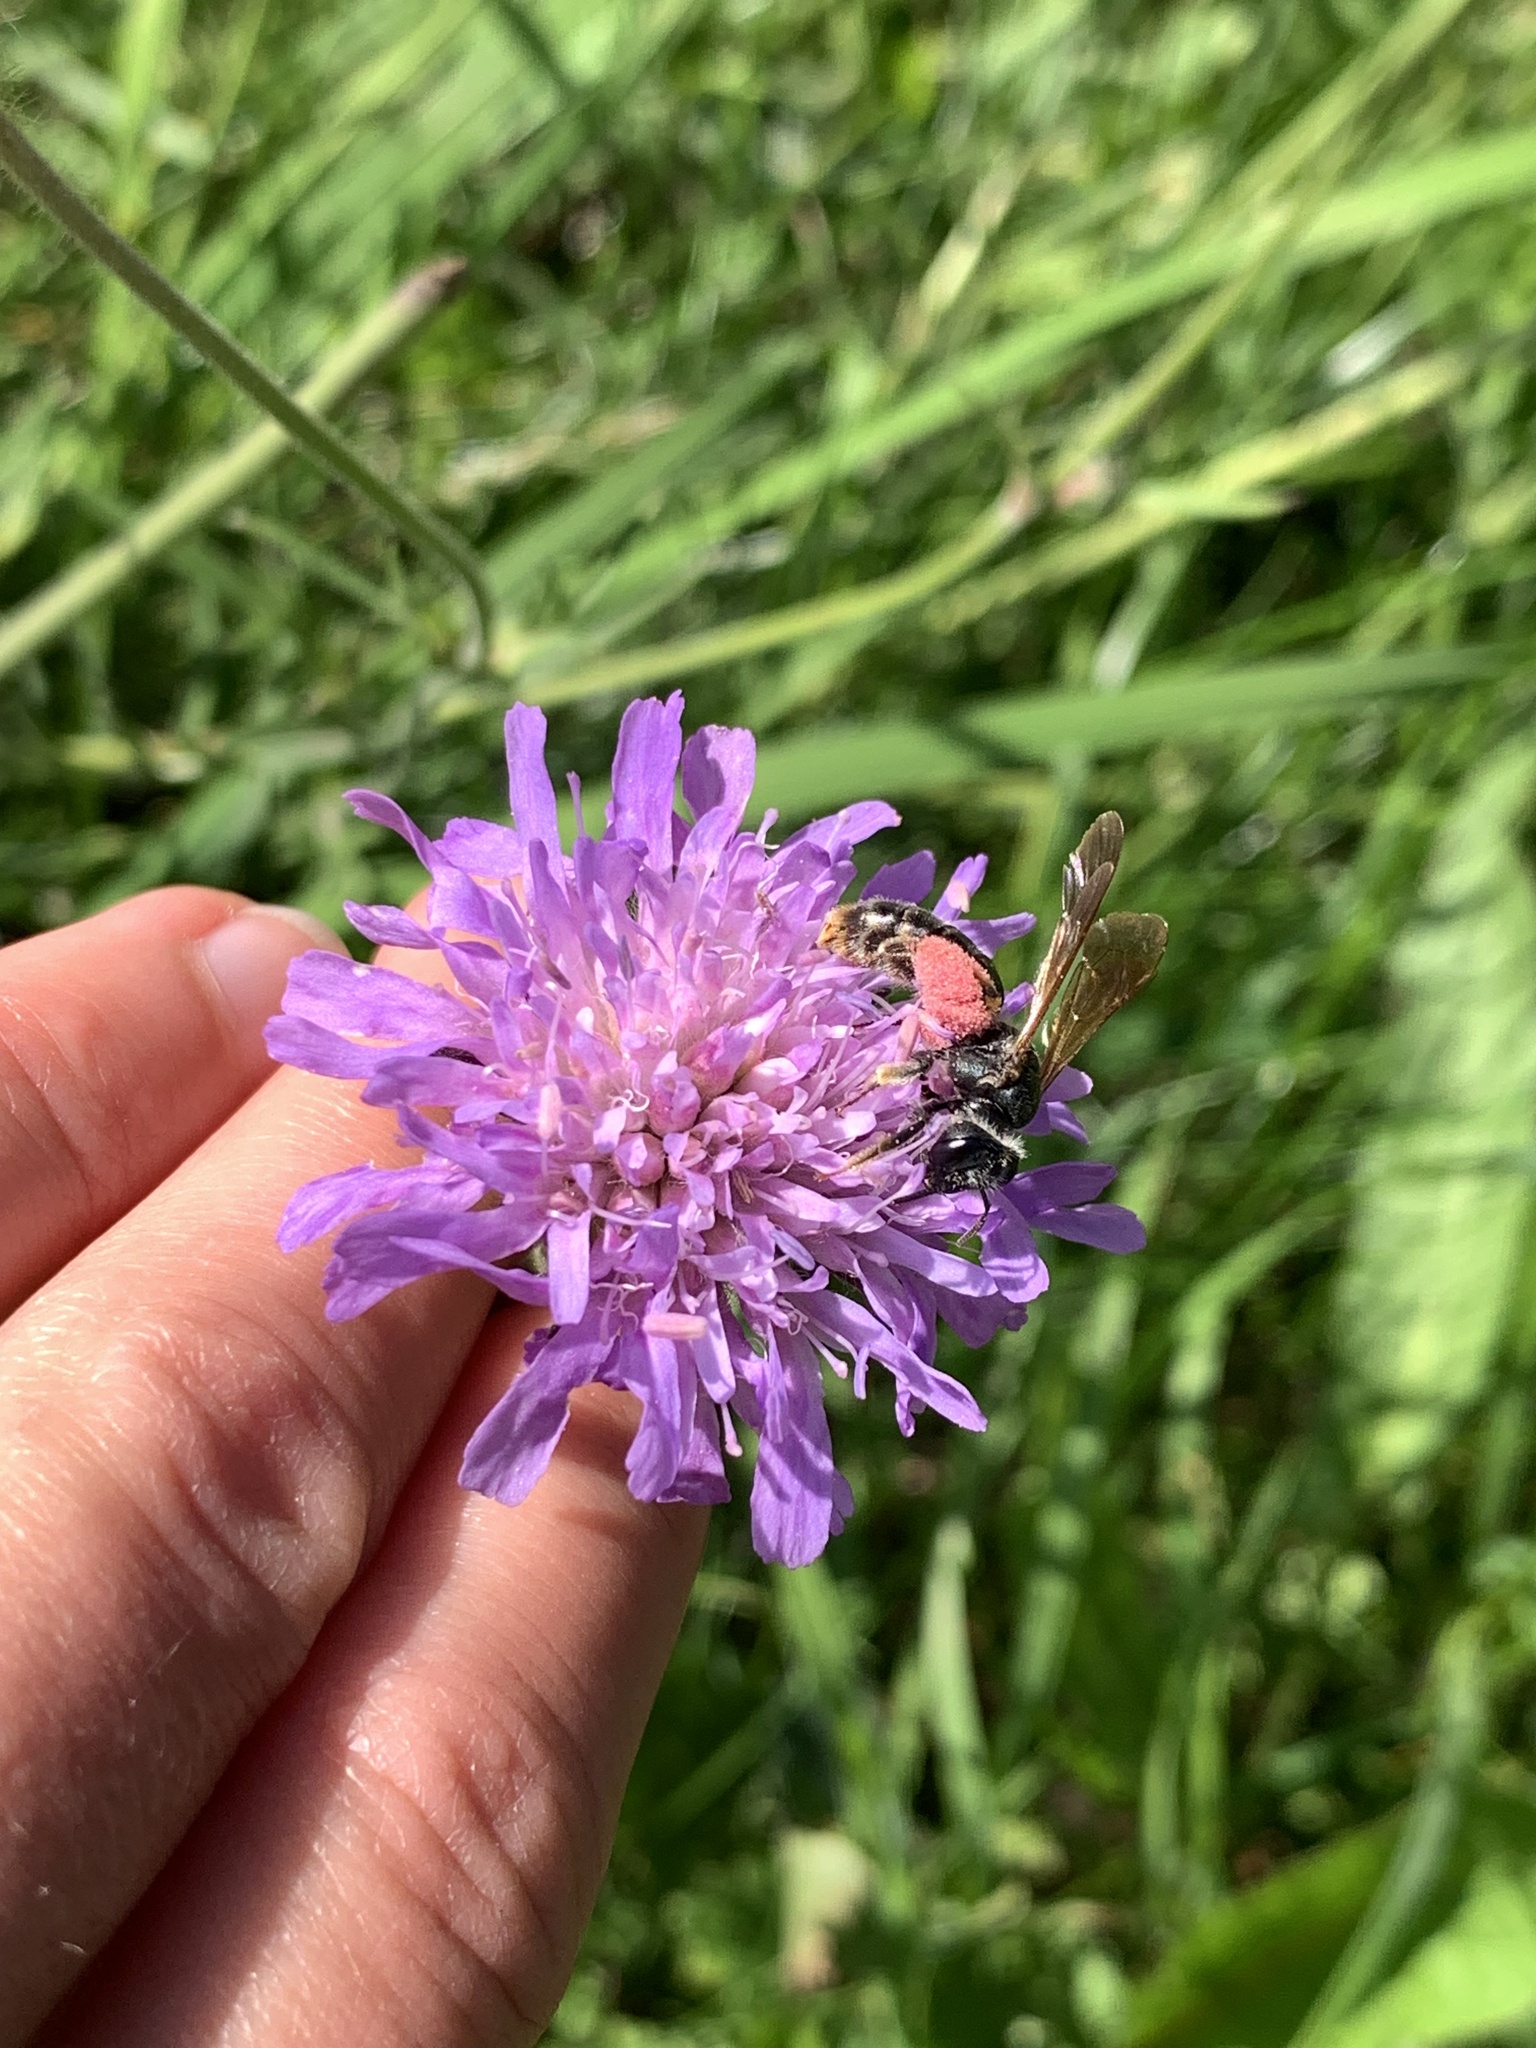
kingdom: Animalia
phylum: Arthropoda
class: Insecta
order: Hymenoptera
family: Andrenidae
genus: Andrena
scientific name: Andrena hattorfiana
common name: Large scabious mining bee
